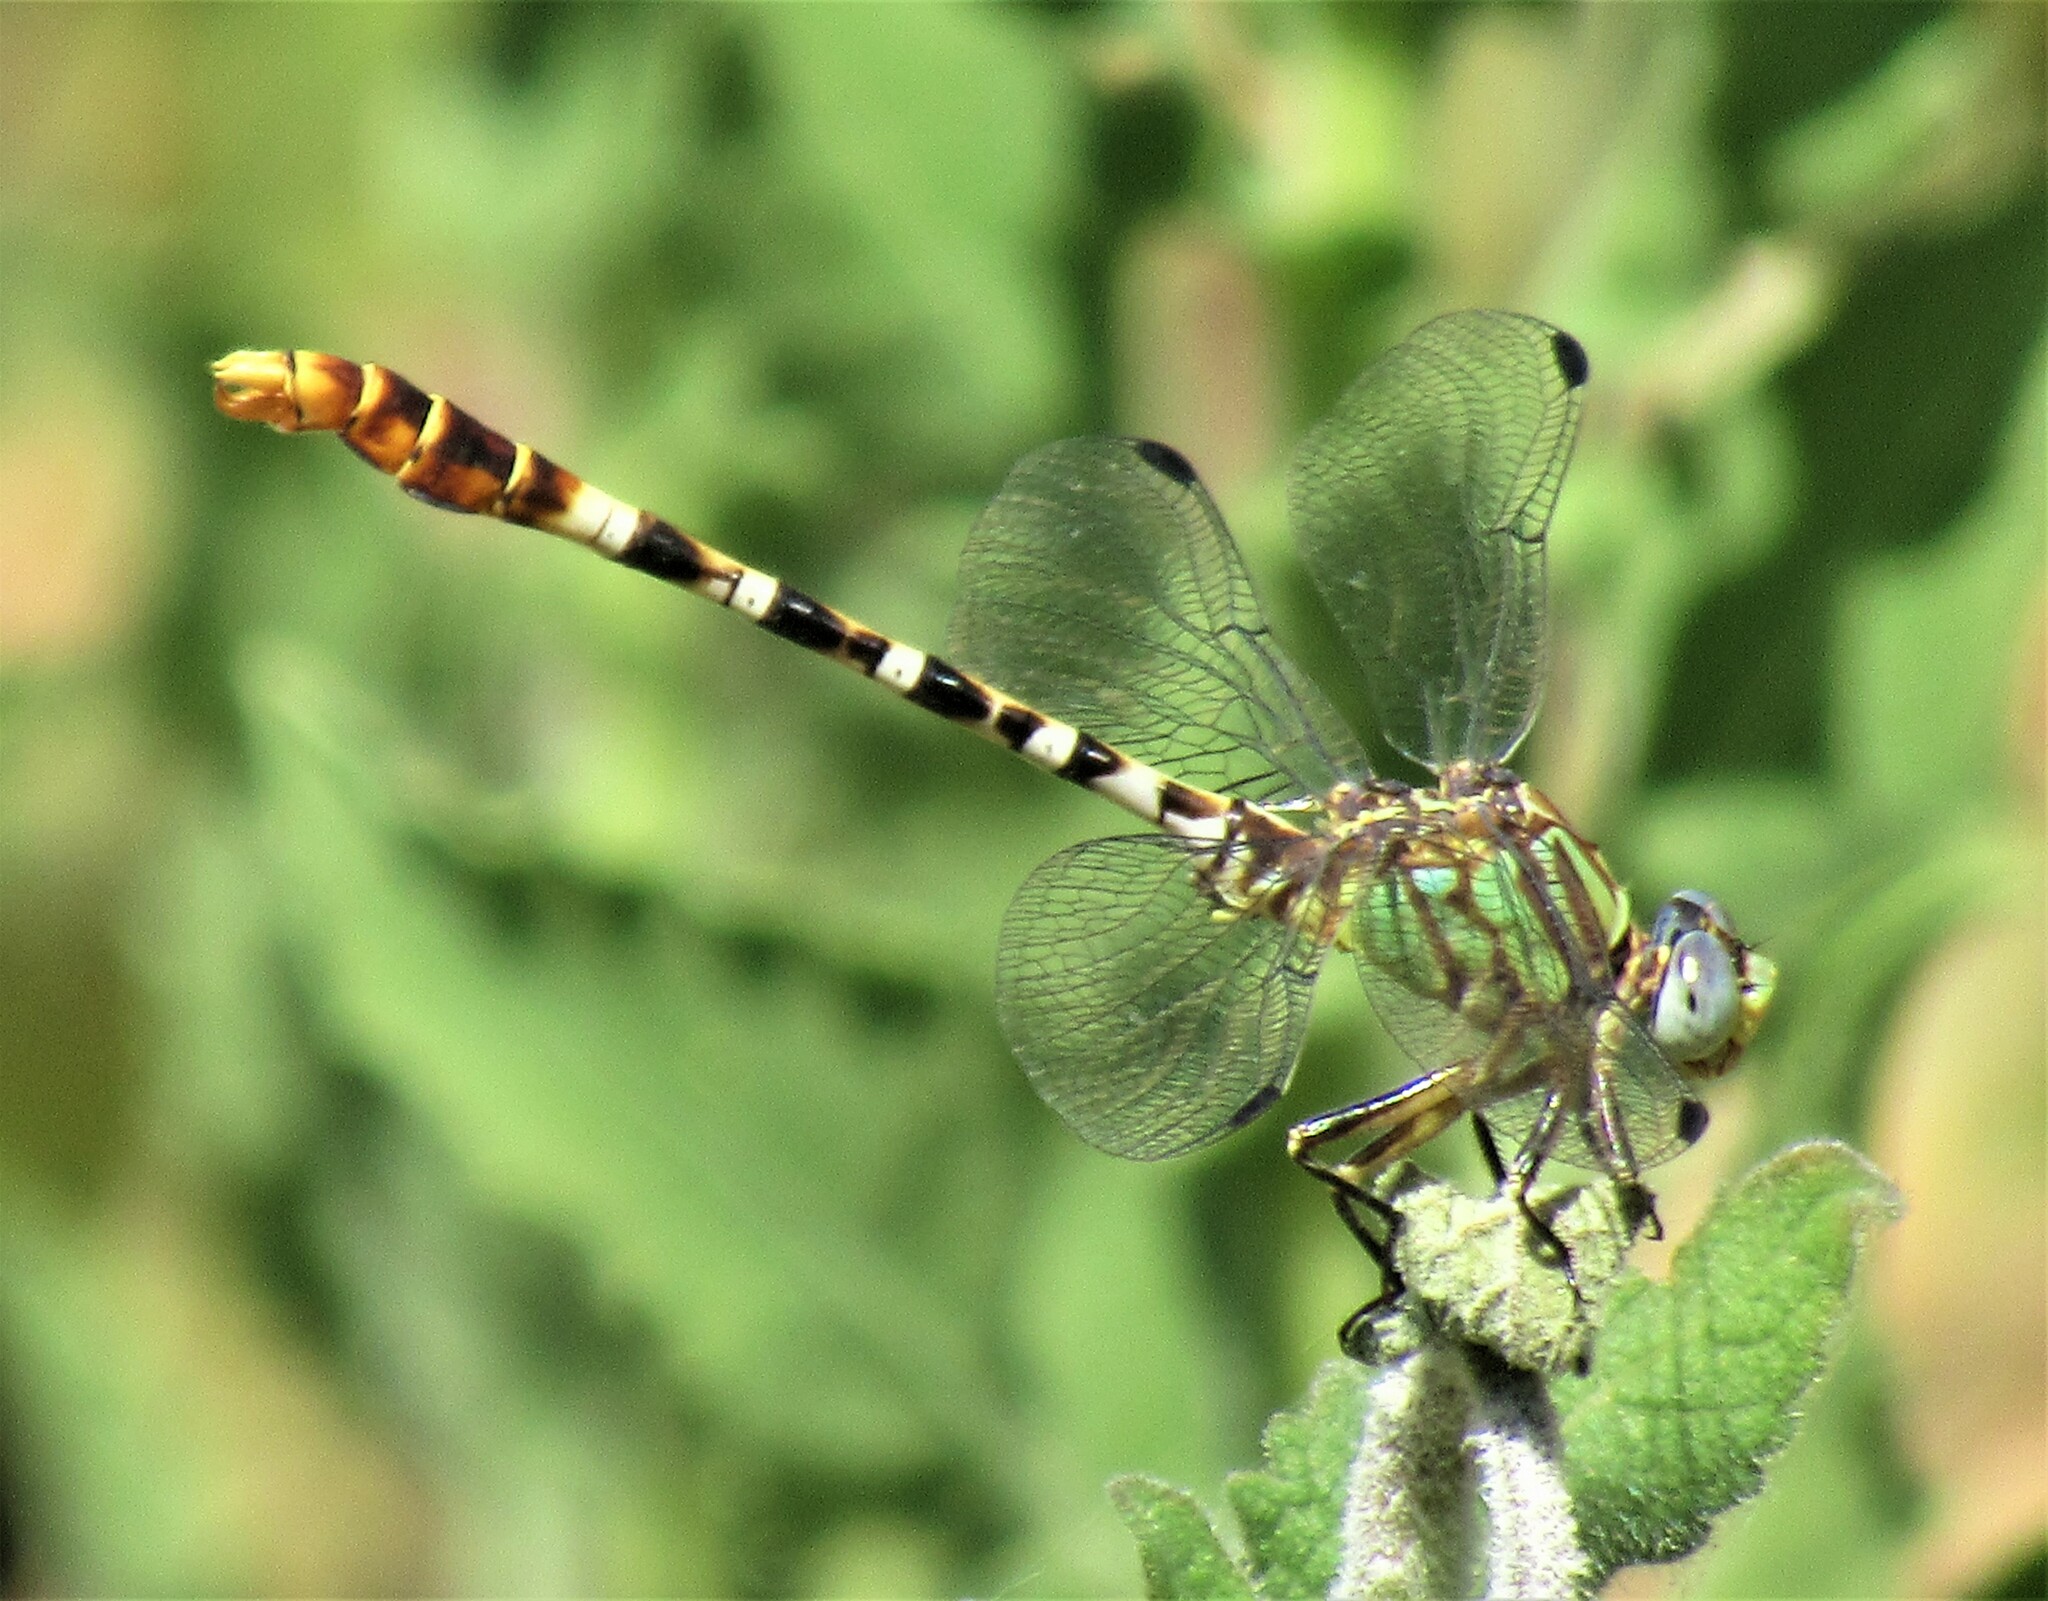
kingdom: Animalia
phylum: Arthropoda
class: Insecta
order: Odonata
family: Gomphidae
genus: Erpetogomphus
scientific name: Erpetogomphus lampropeltis
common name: Serpent ringtail
